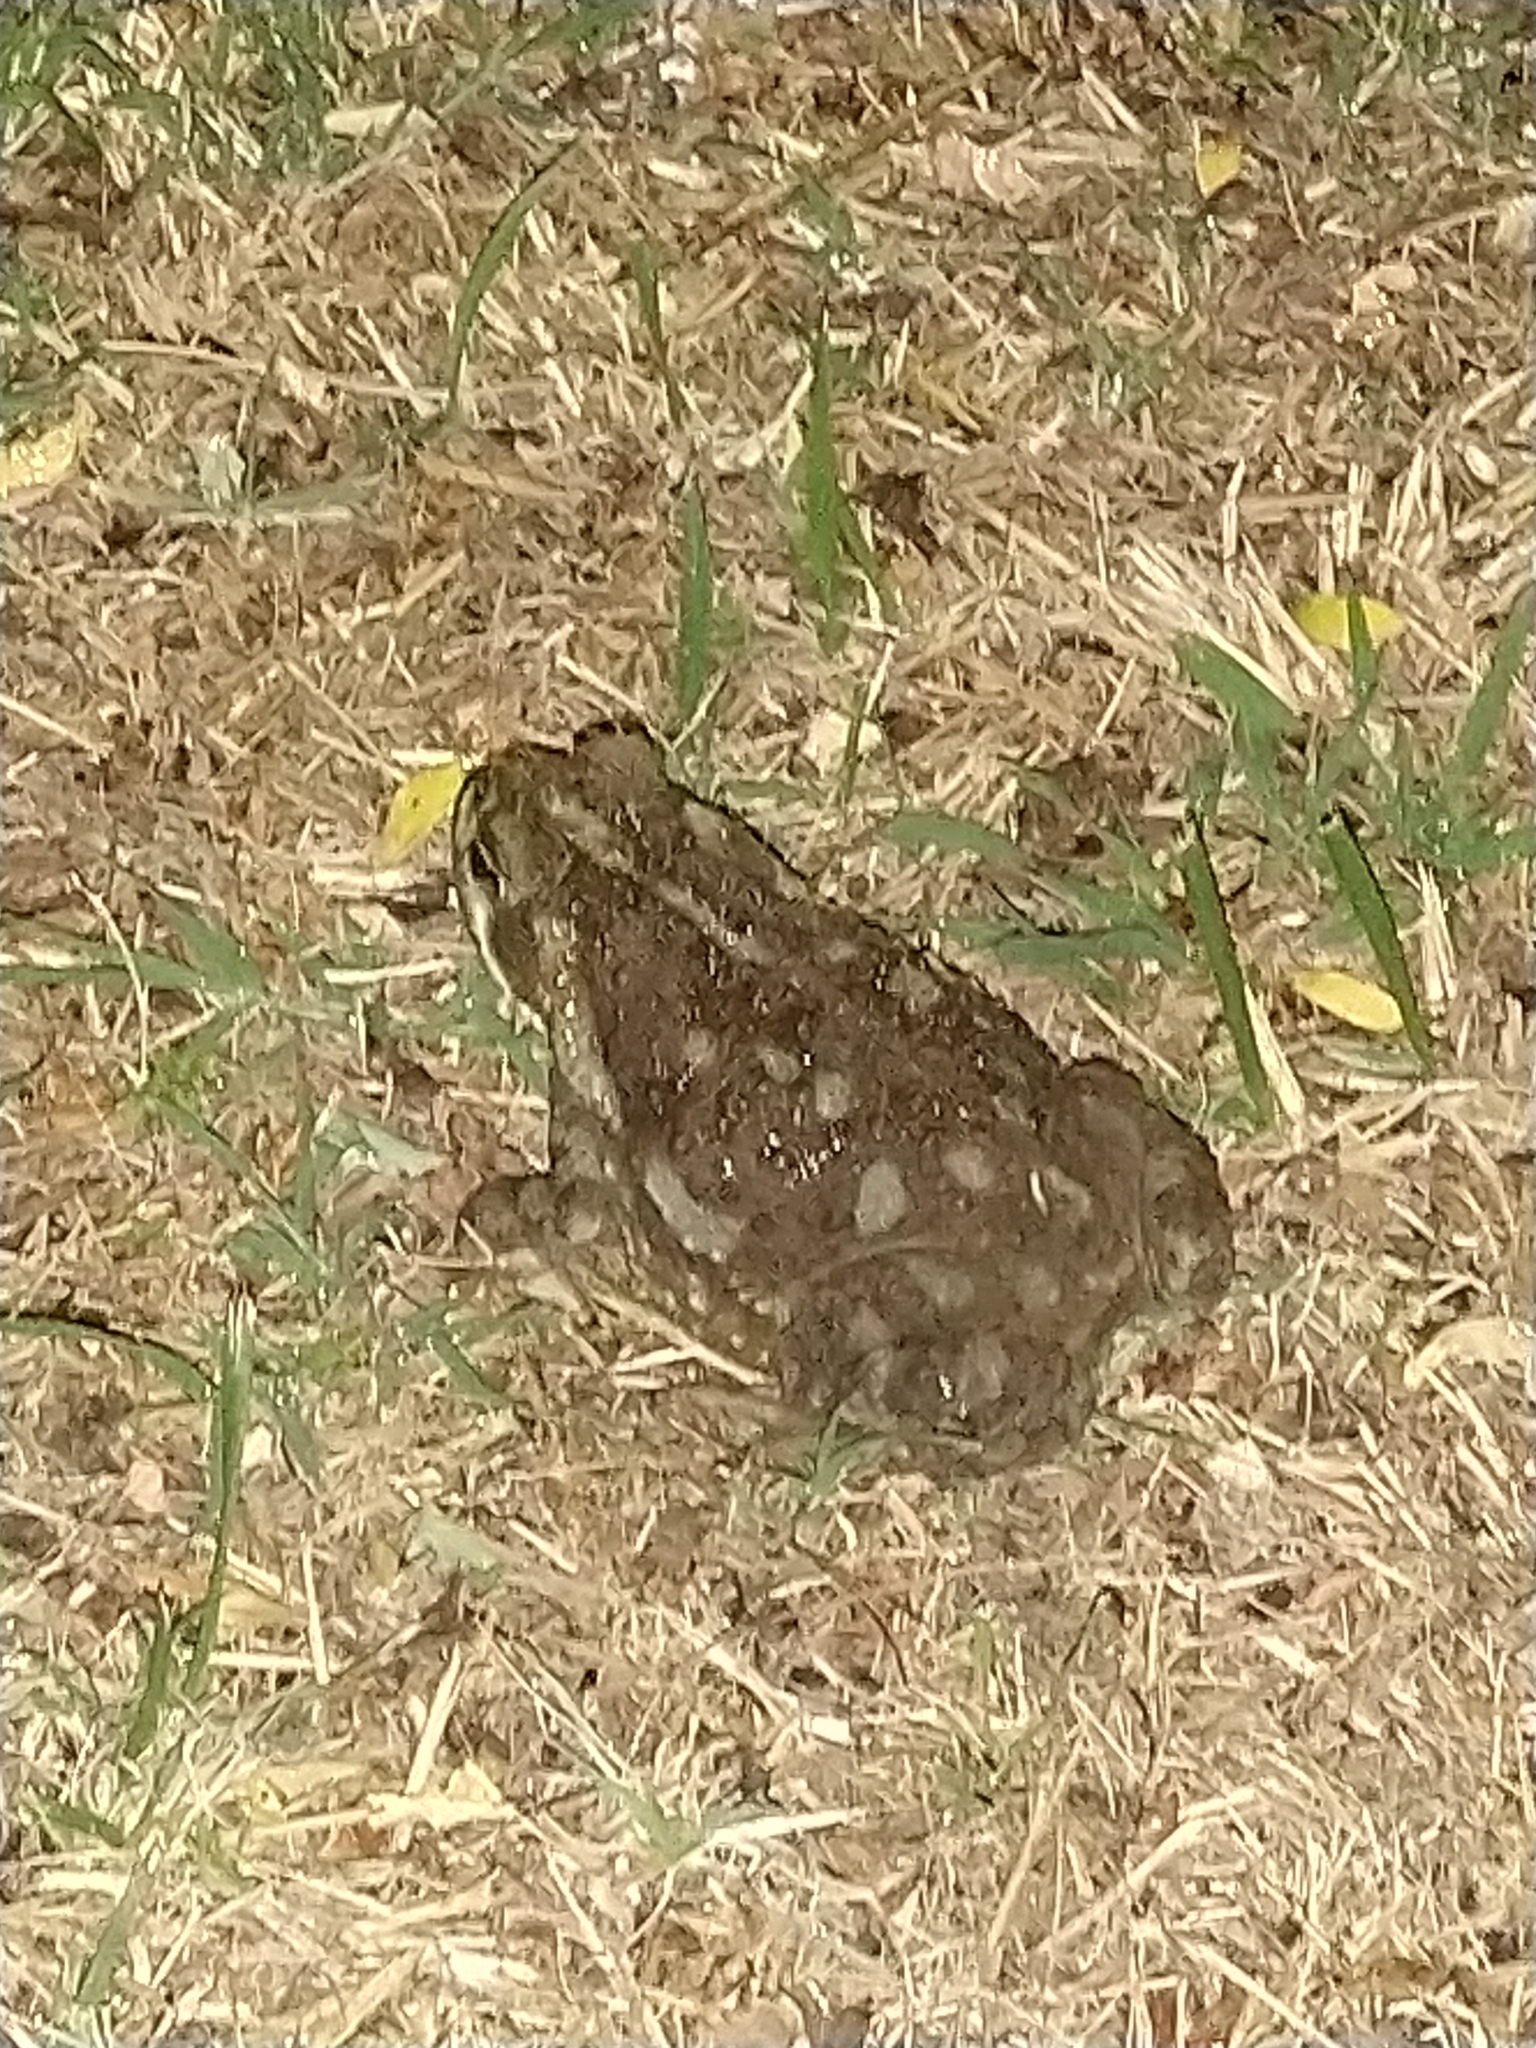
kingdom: Animalia
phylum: Chordata
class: Amphibia
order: Anura
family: Bufonidae
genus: Rhinella
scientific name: Rhinella arenarum
